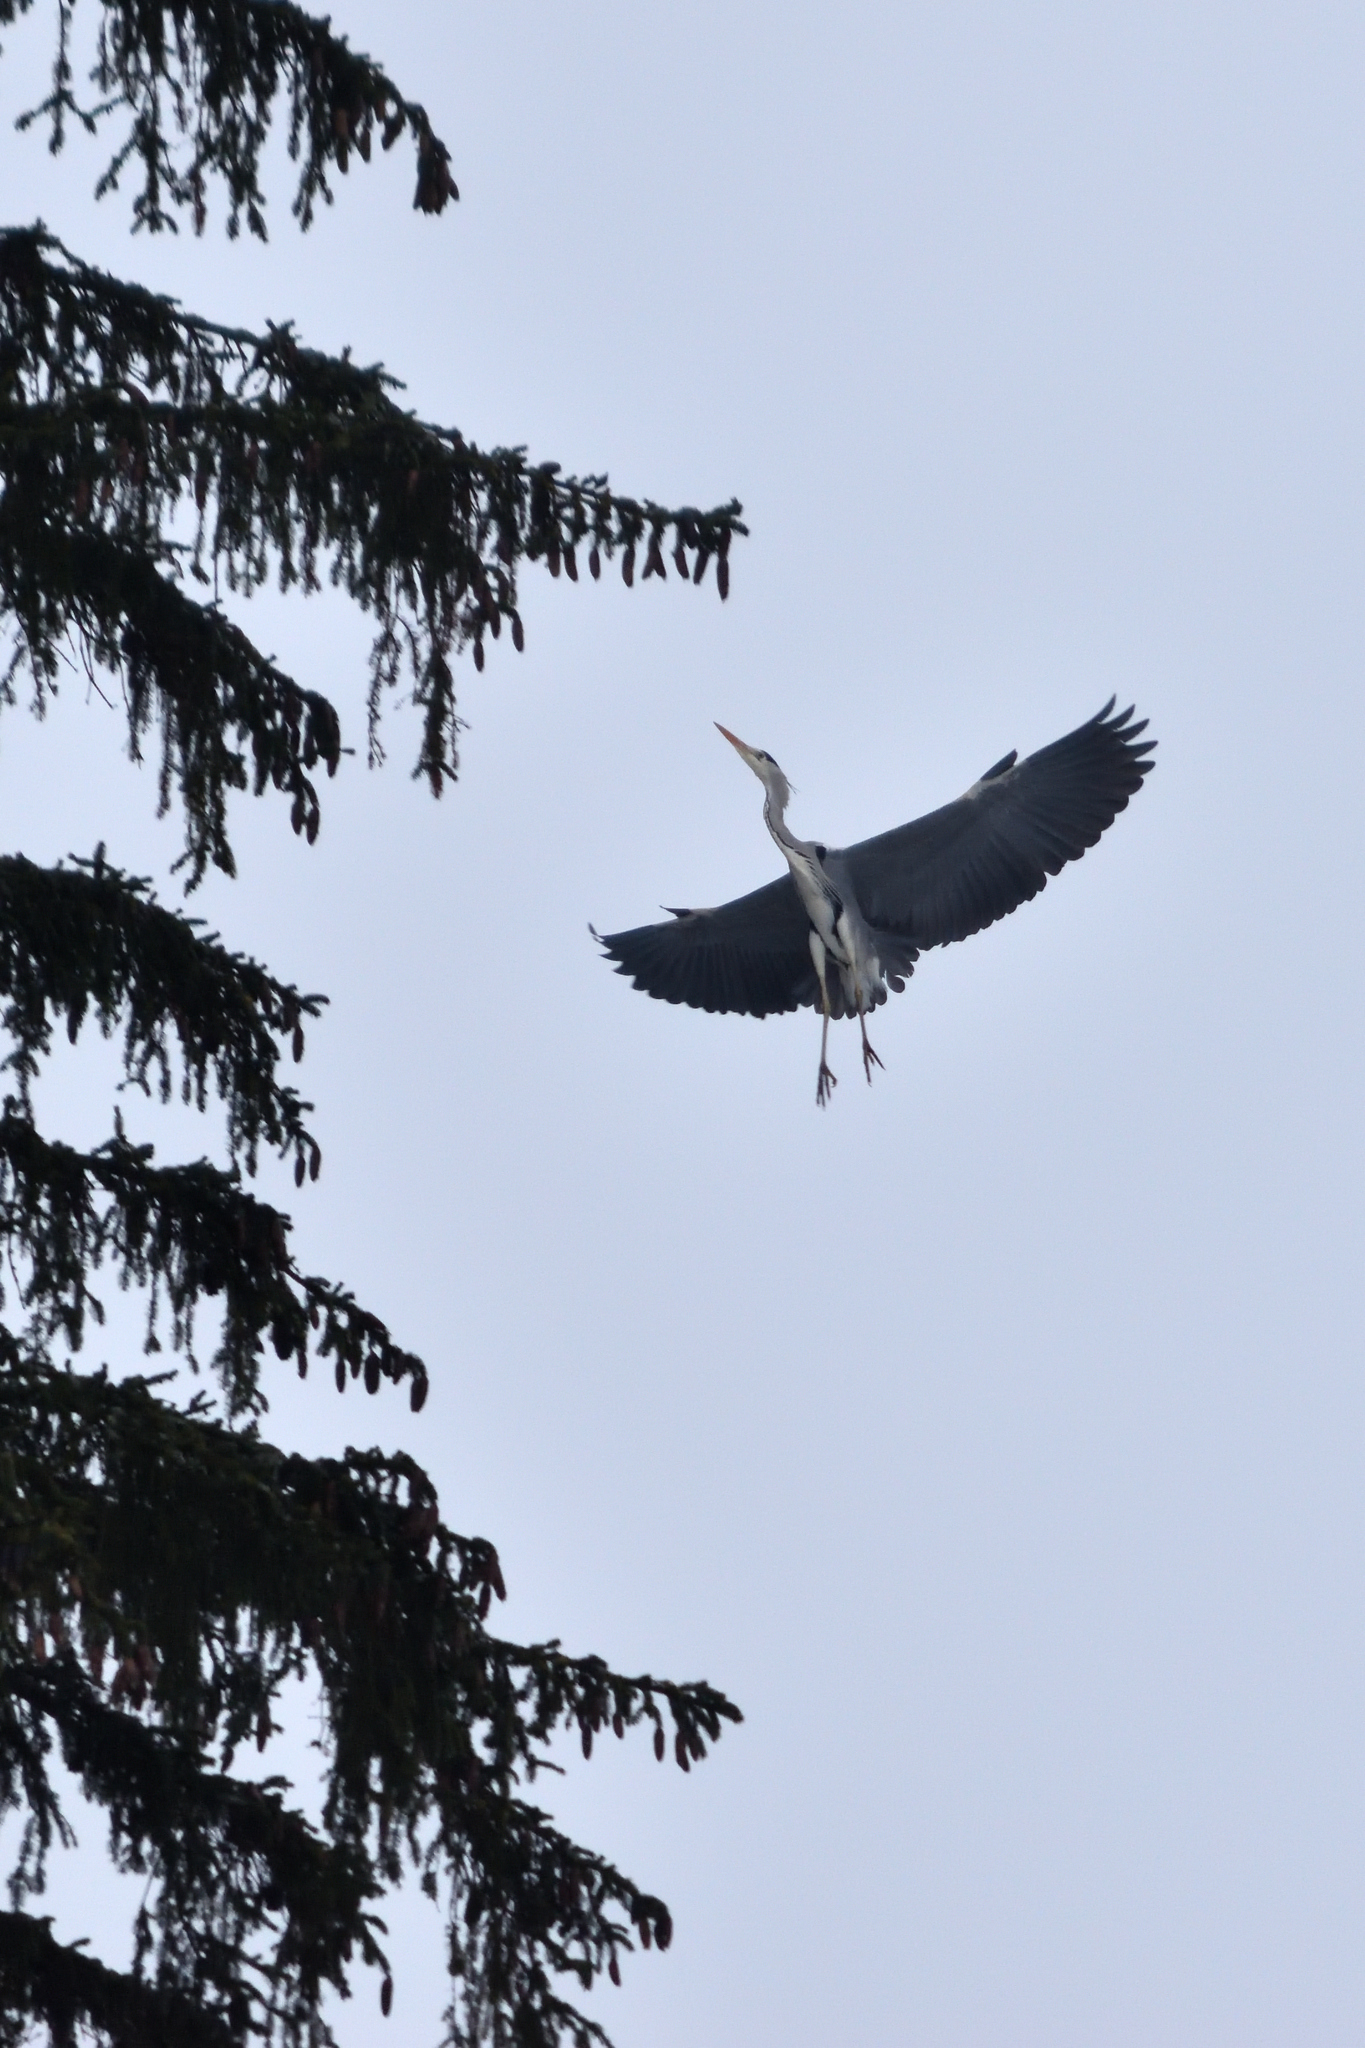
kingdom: Animalia
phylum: Chordata
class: Aves
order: Pelecaniformes
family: Ardeidae
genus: Ardea
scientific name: Ardea cinerea
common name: Grey heron
